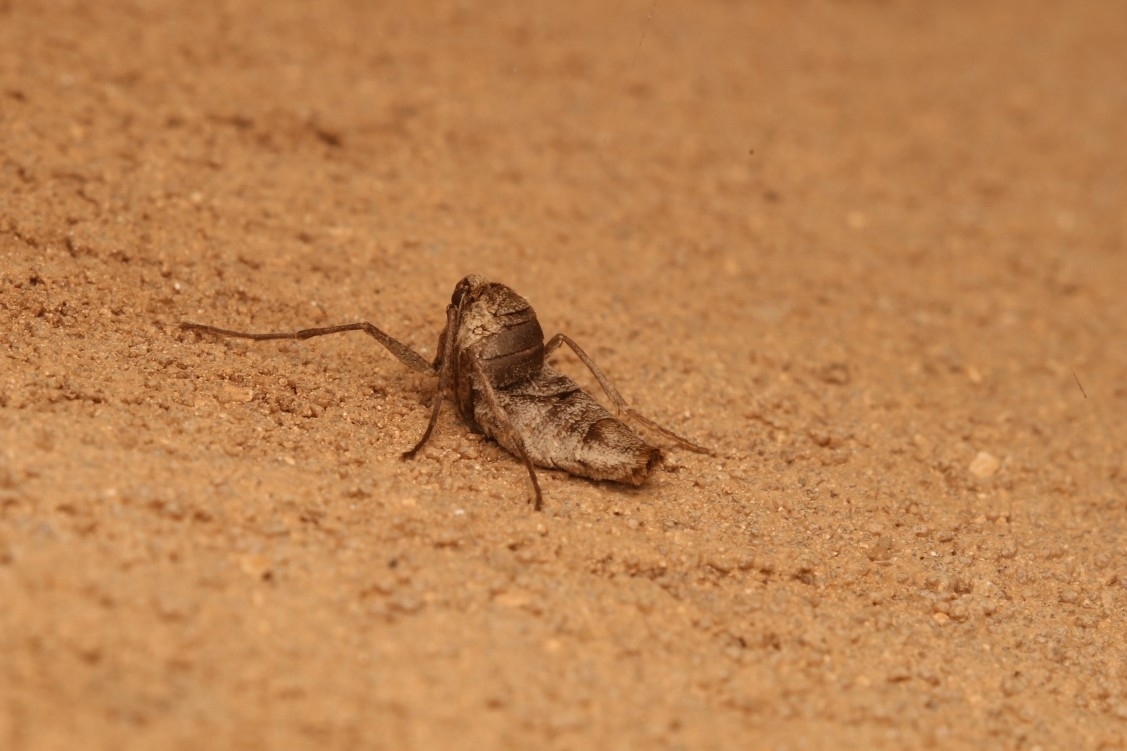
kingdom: Animalia
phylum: Arthropoda
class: Insecta
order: Lepidoptera
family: Geometridae
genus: Alsophila
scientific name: Alsophila pometaria
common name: Fall cankerworm
